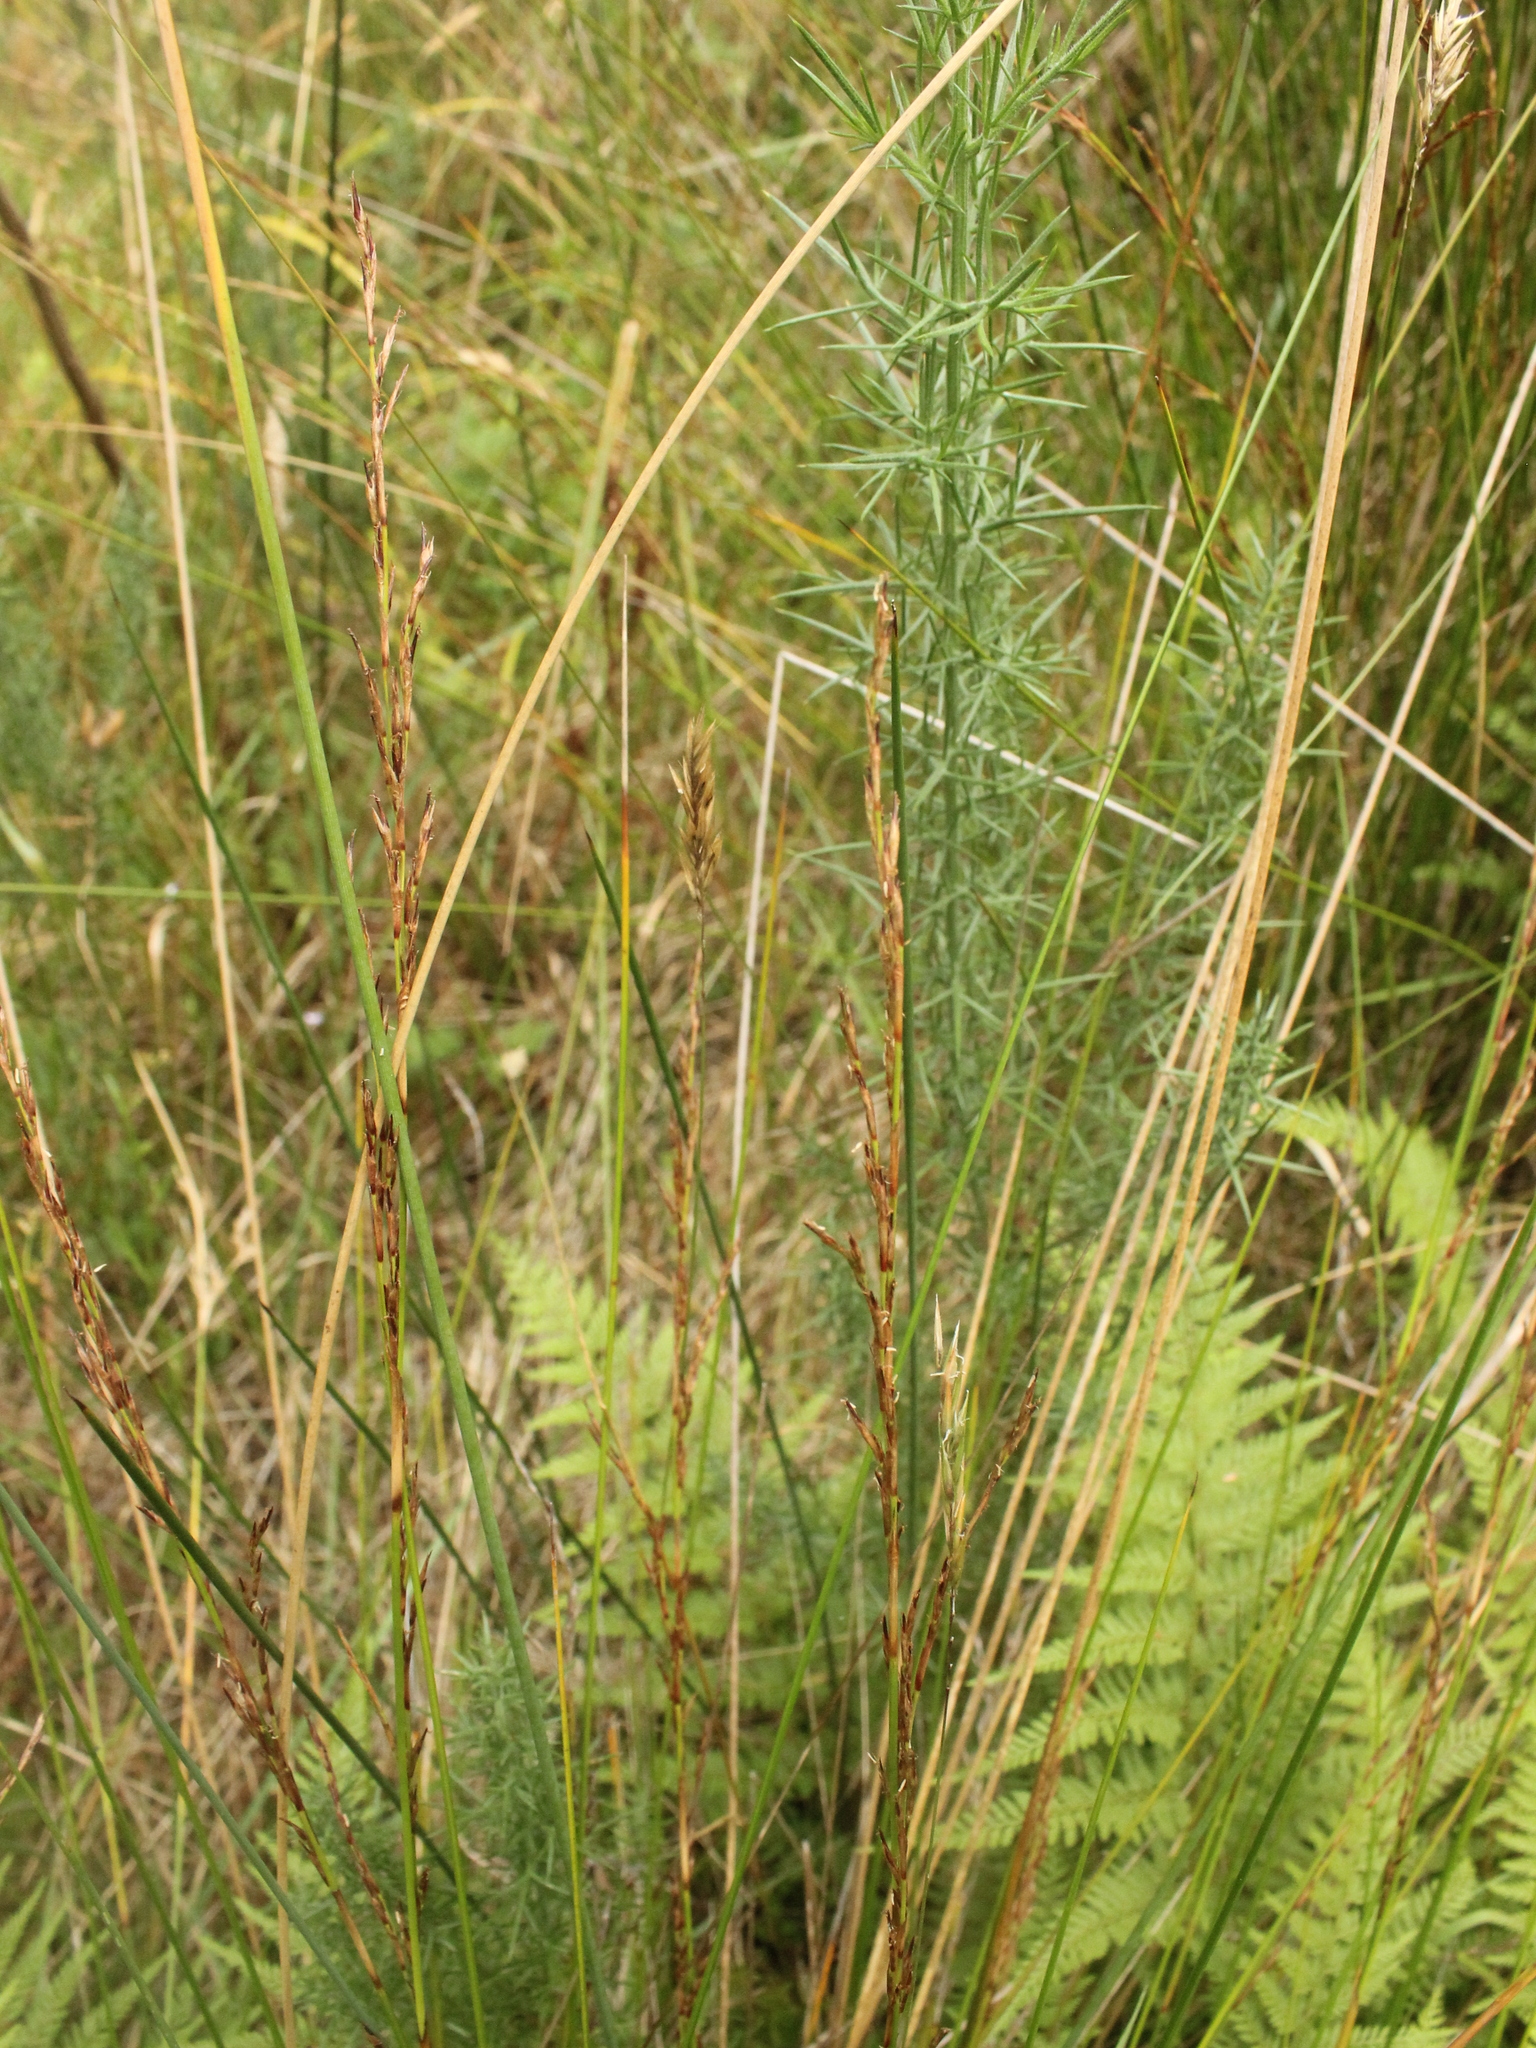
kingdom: Plantae
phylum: Tracheophyta
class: Liliopsida
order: Poales
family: Cyperaceae
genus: Machaerina
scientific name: Machaerina tenax
